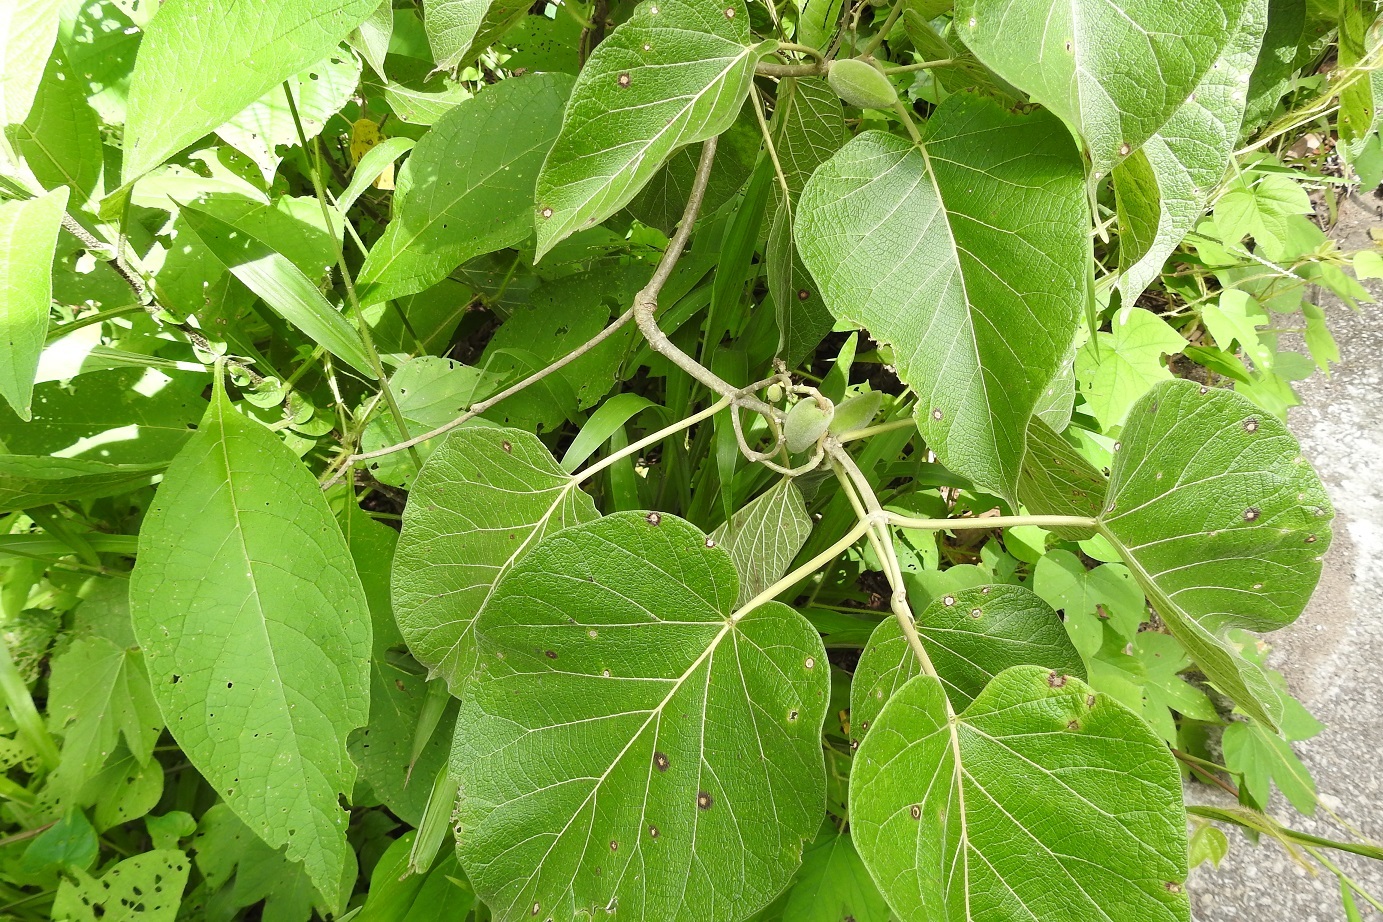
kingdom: Plantae
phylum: Tracheophyta
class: Magnoliopsida
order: Gentianales
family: Apocynaceae
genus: Ruehssia
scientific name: Ruehssia mexicana
